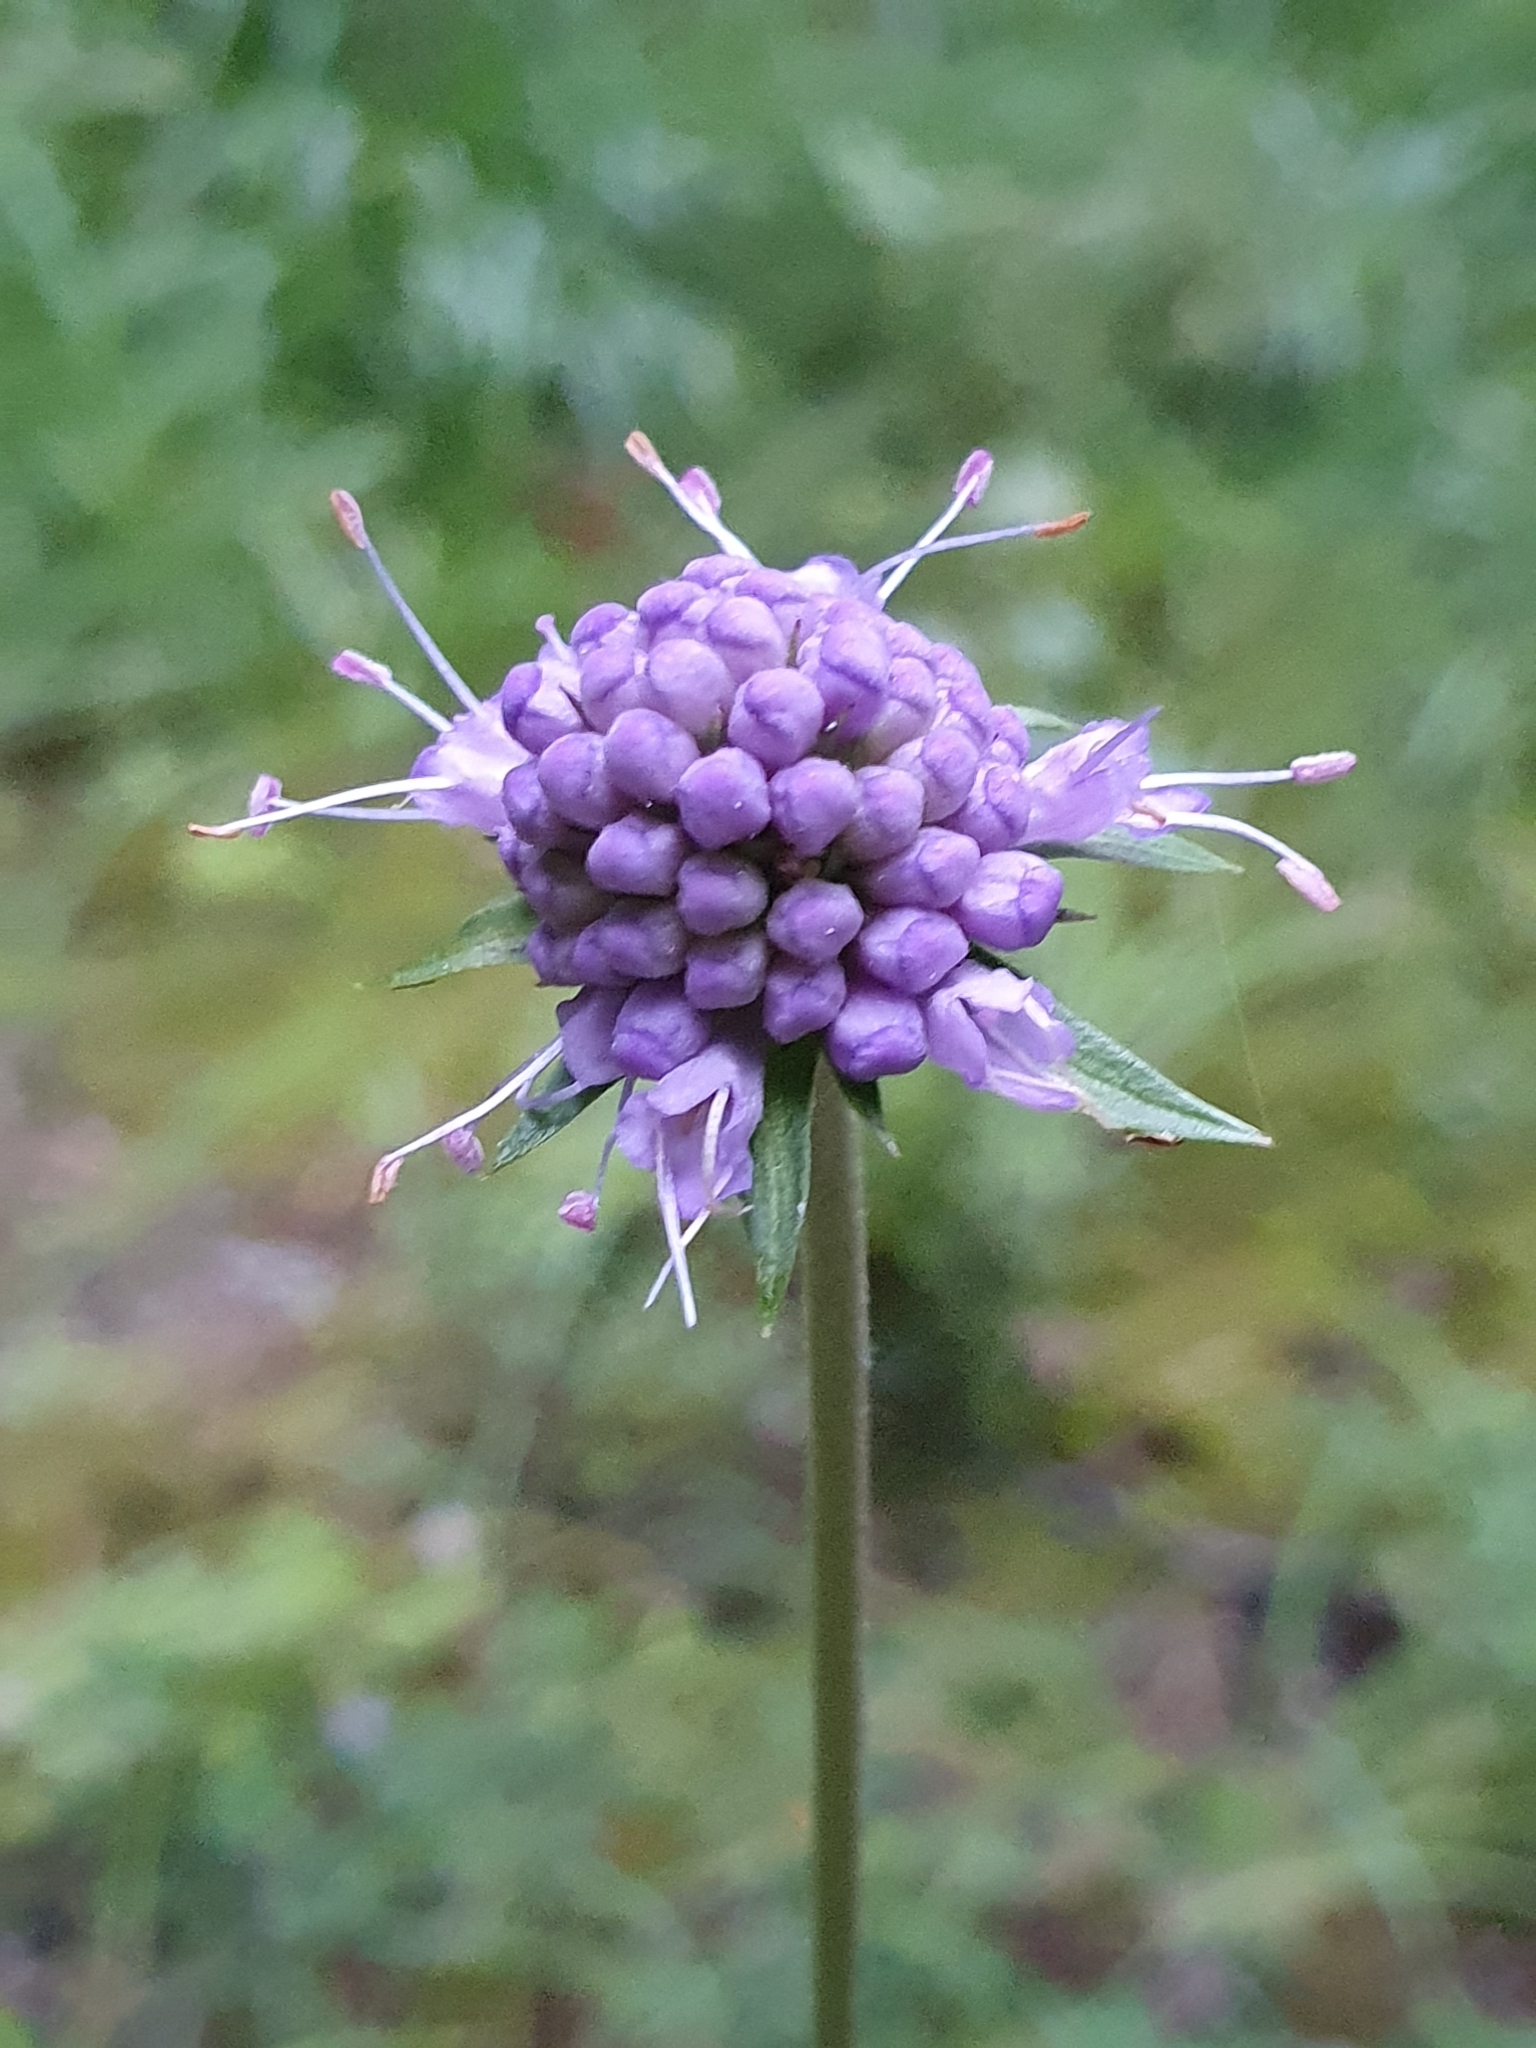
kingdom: Plantae
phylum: Tracheophyta
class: Magnoliopsida
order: Dipsacales
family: Caprifoliaceae
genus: Succisa
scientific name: Succisa pratensis
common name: Devil's-bit
